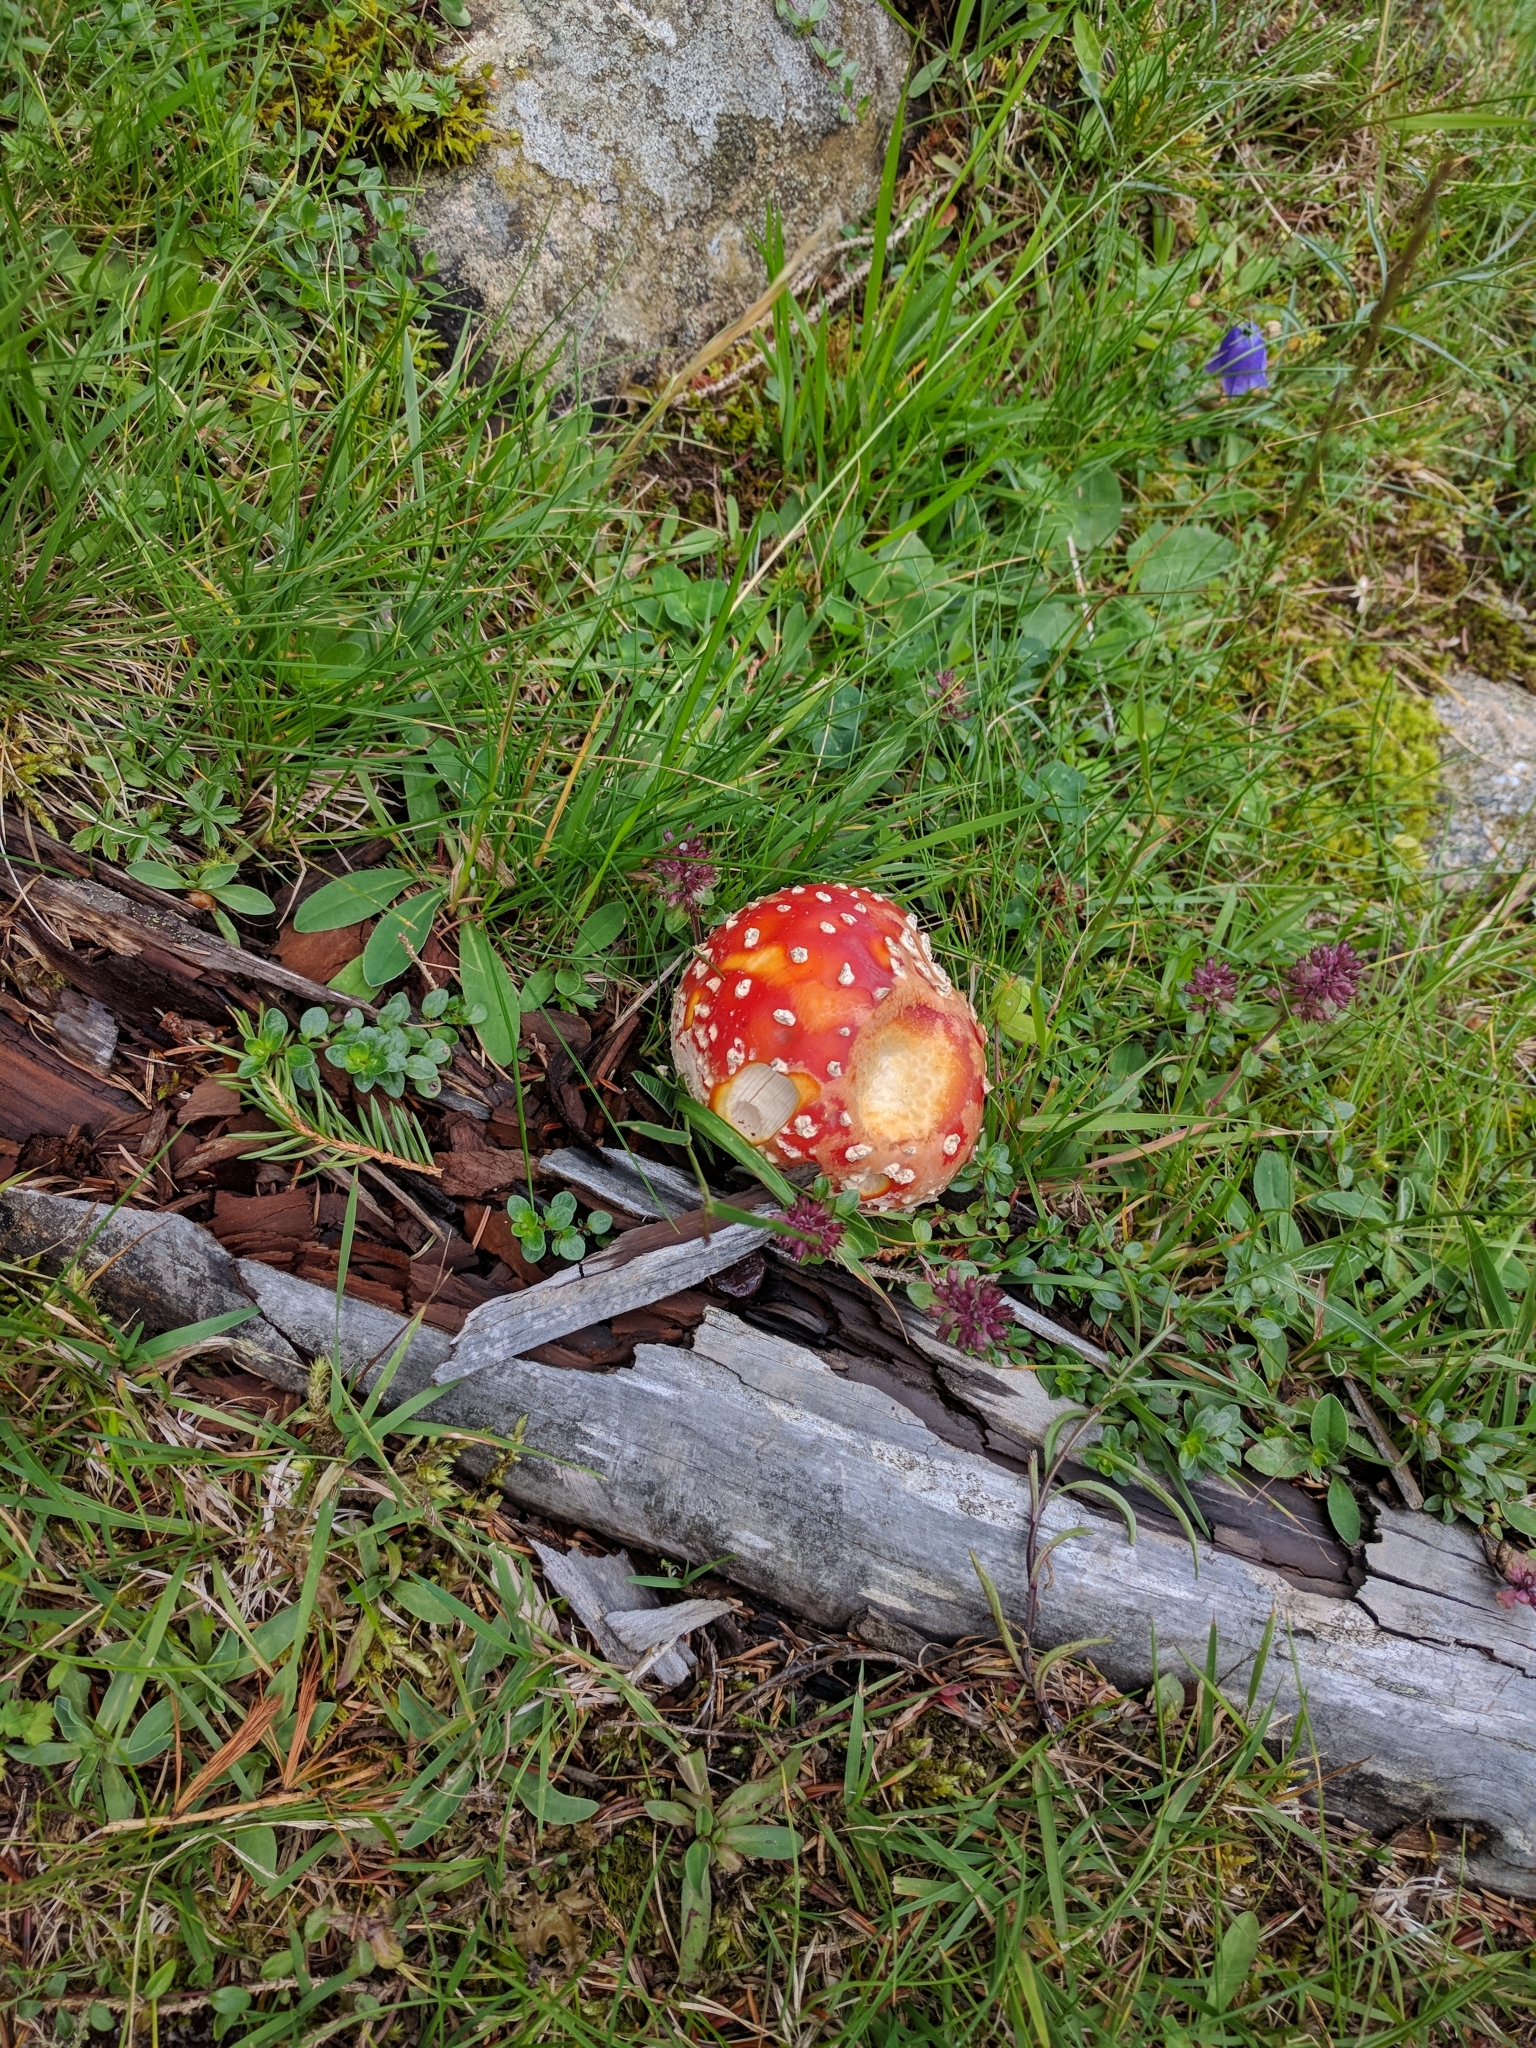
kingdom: Fungi
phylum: Basidiomycota
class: Agaricomycetes
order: Agaricales
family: Amanitaceae
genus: Amanita
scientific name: Amanita muscaria
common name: Fly agaric
